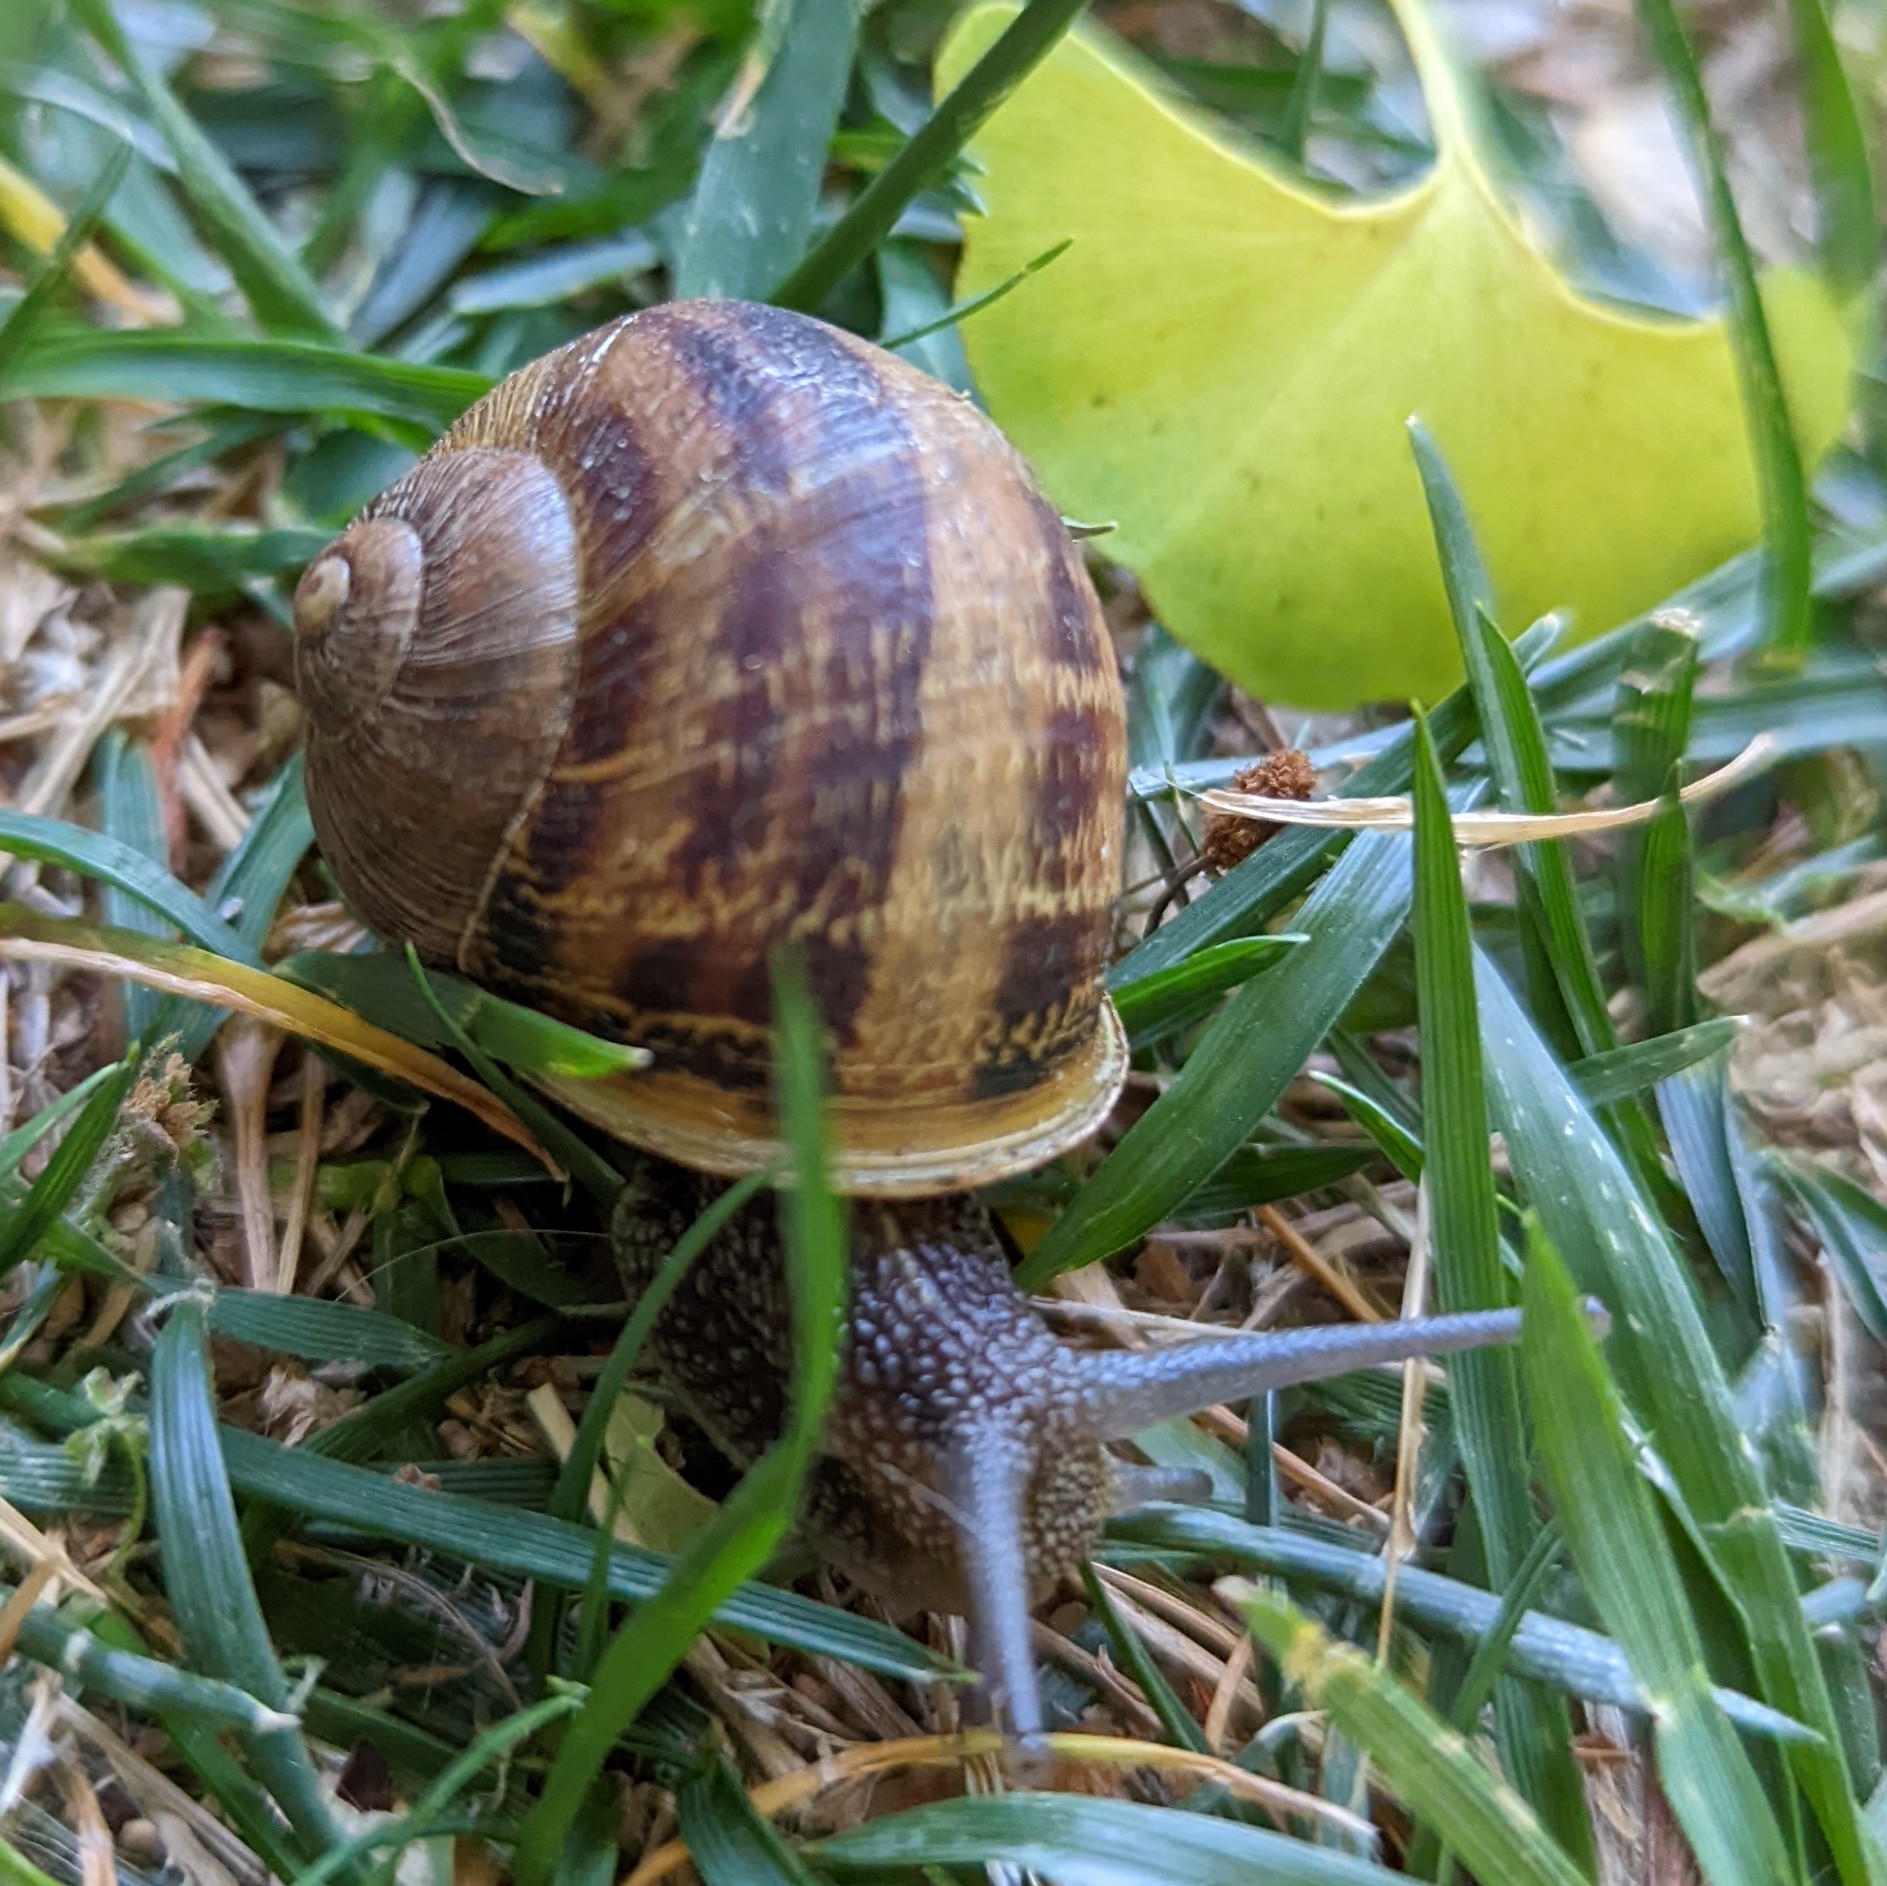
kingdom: Animalia
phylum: Mollusca
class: Gastropoda
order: Stylommatophora
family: Helicidae
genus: Cornu
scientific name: Cornu aspersum
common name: Brown garden snail
